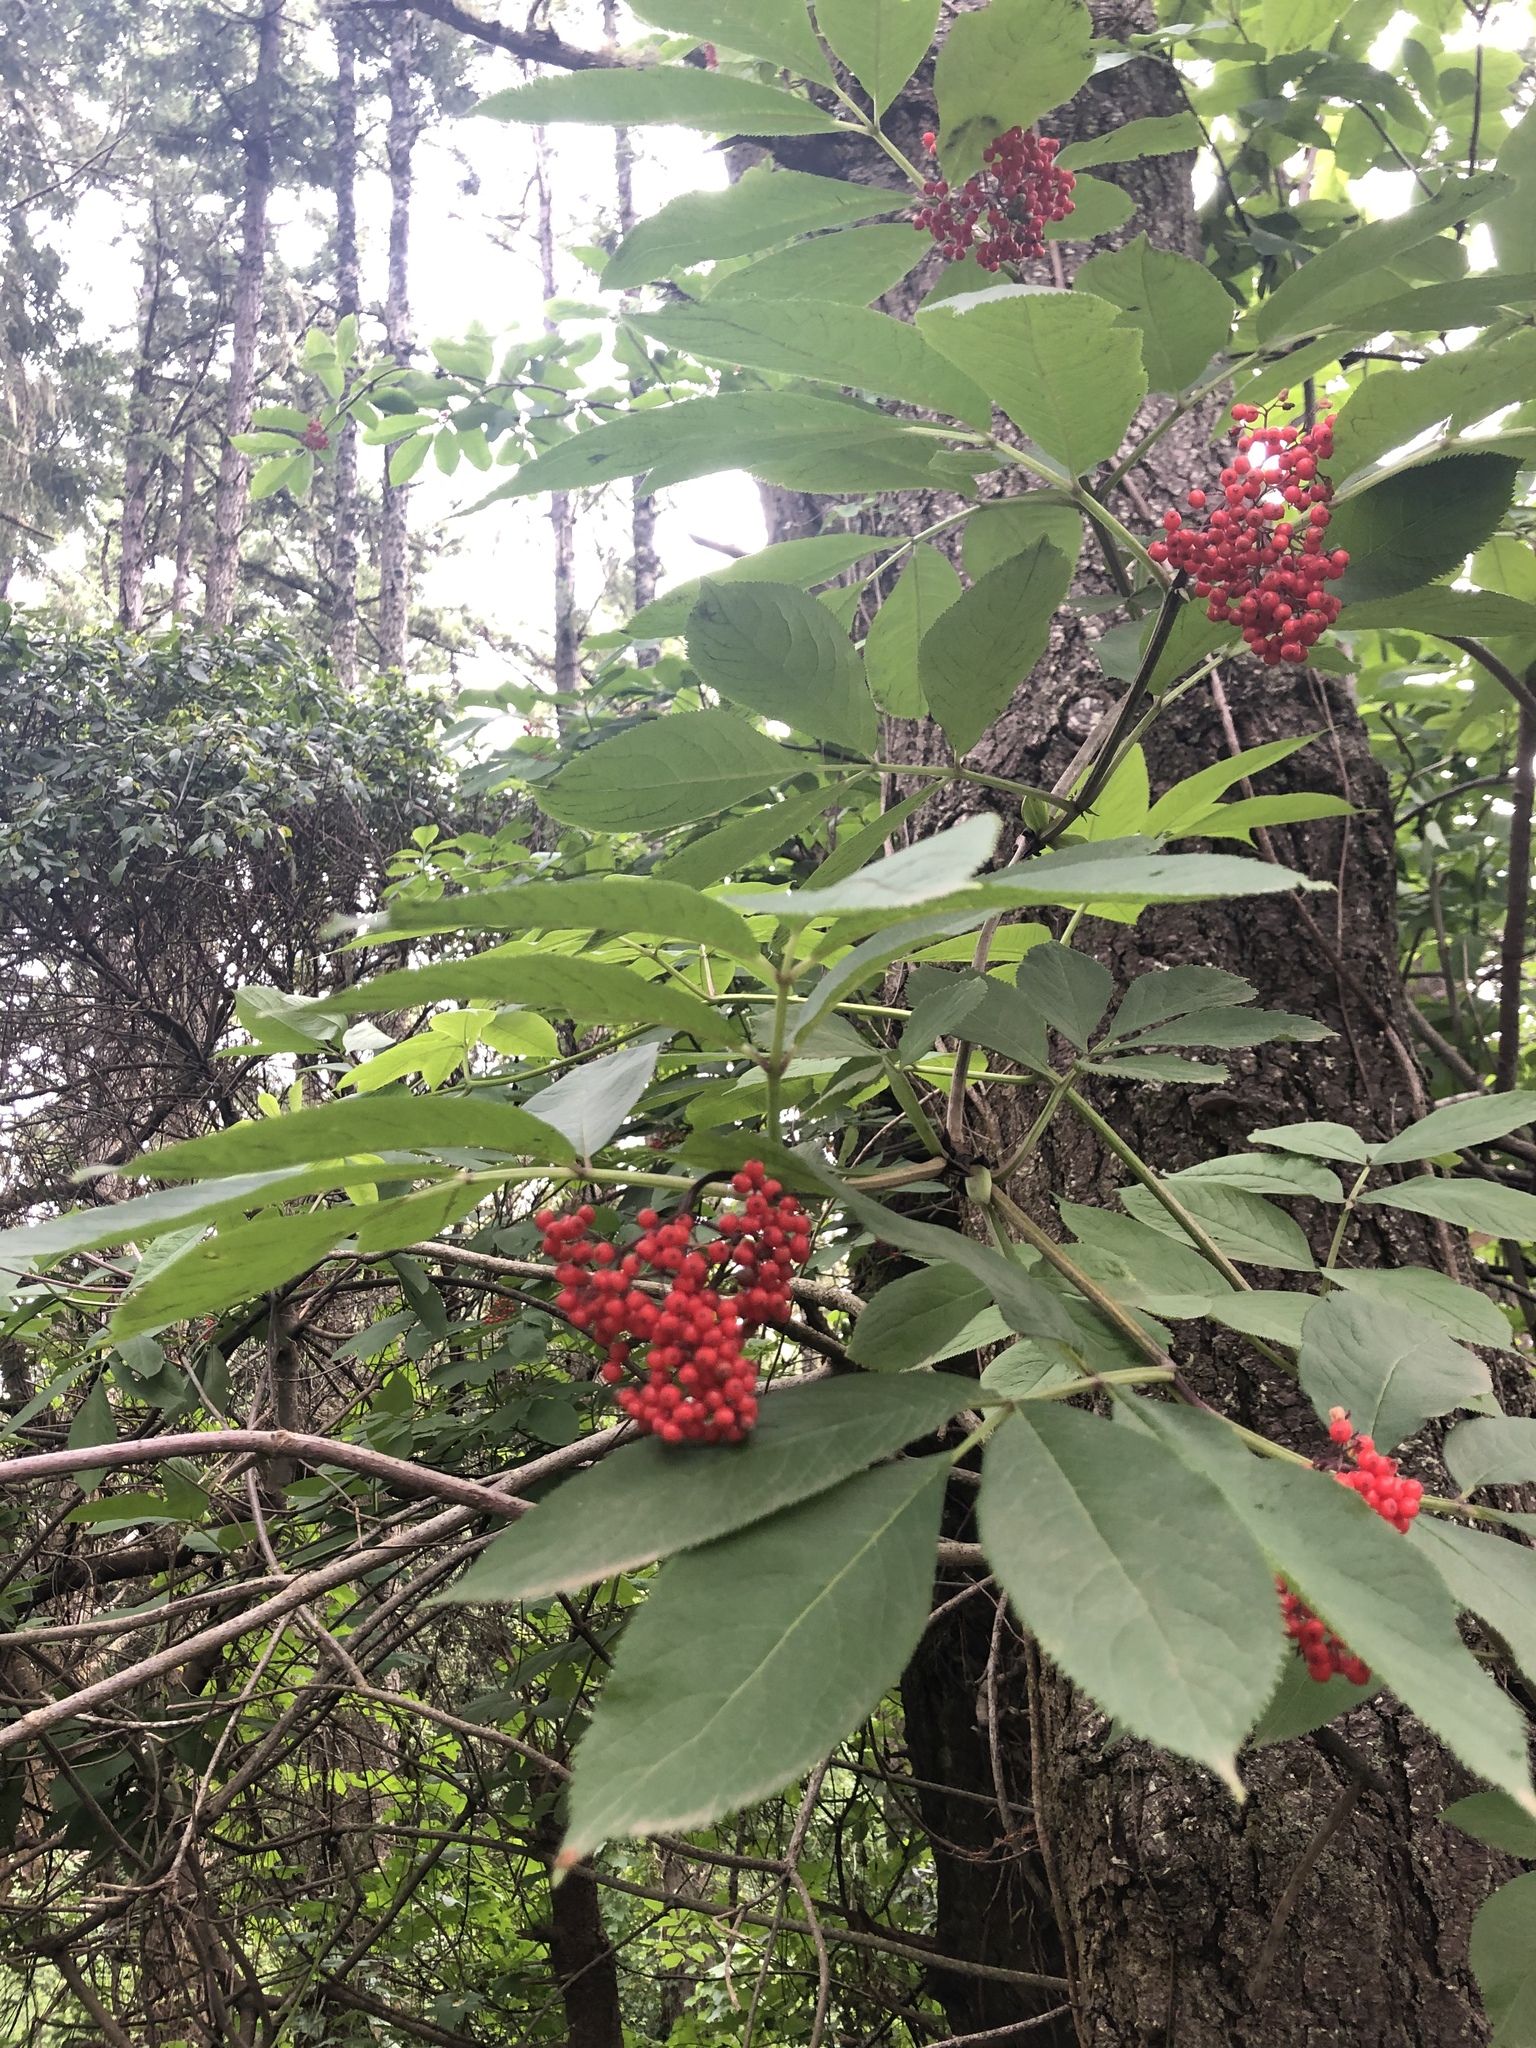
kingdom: Plantae
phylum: Tracheophyta
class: Magnoliopsida
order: Dipsacales
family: Viburnaceae
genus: Sambucus
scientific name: Sambucus racemosa
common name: Red-berried elder
